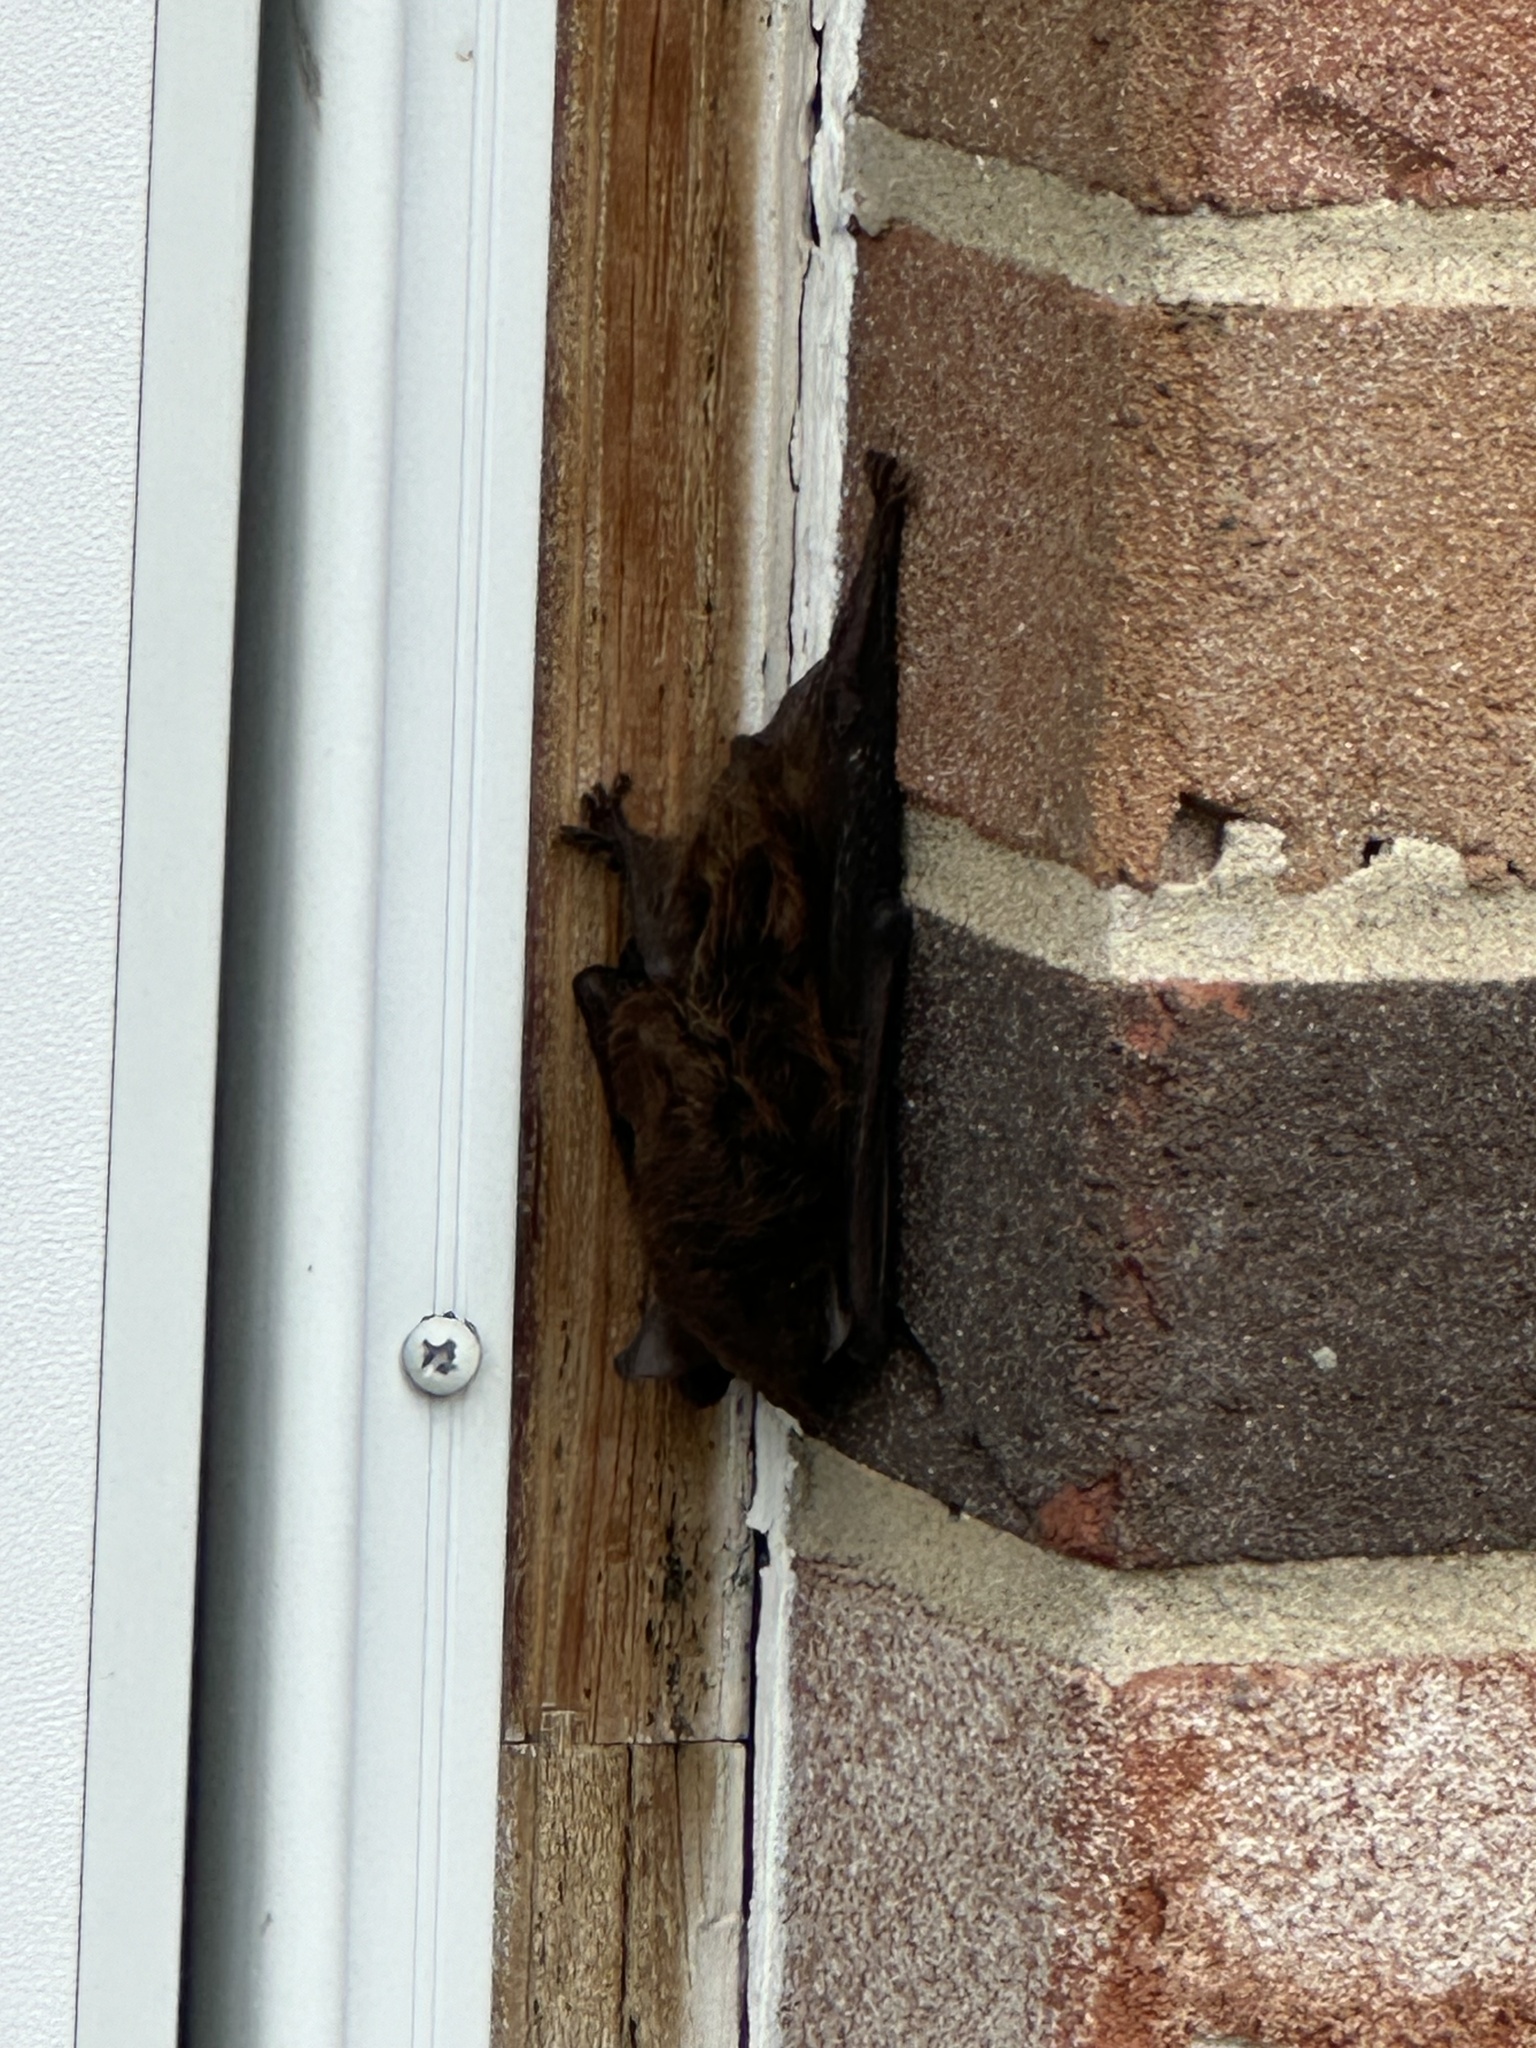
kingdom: Animalia
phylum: Chordata
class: Mammalia
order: Chiroptera
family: Vespertilionidae
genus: Eptesicus
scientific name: Eptesicus fuscus
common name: Big brown bat
